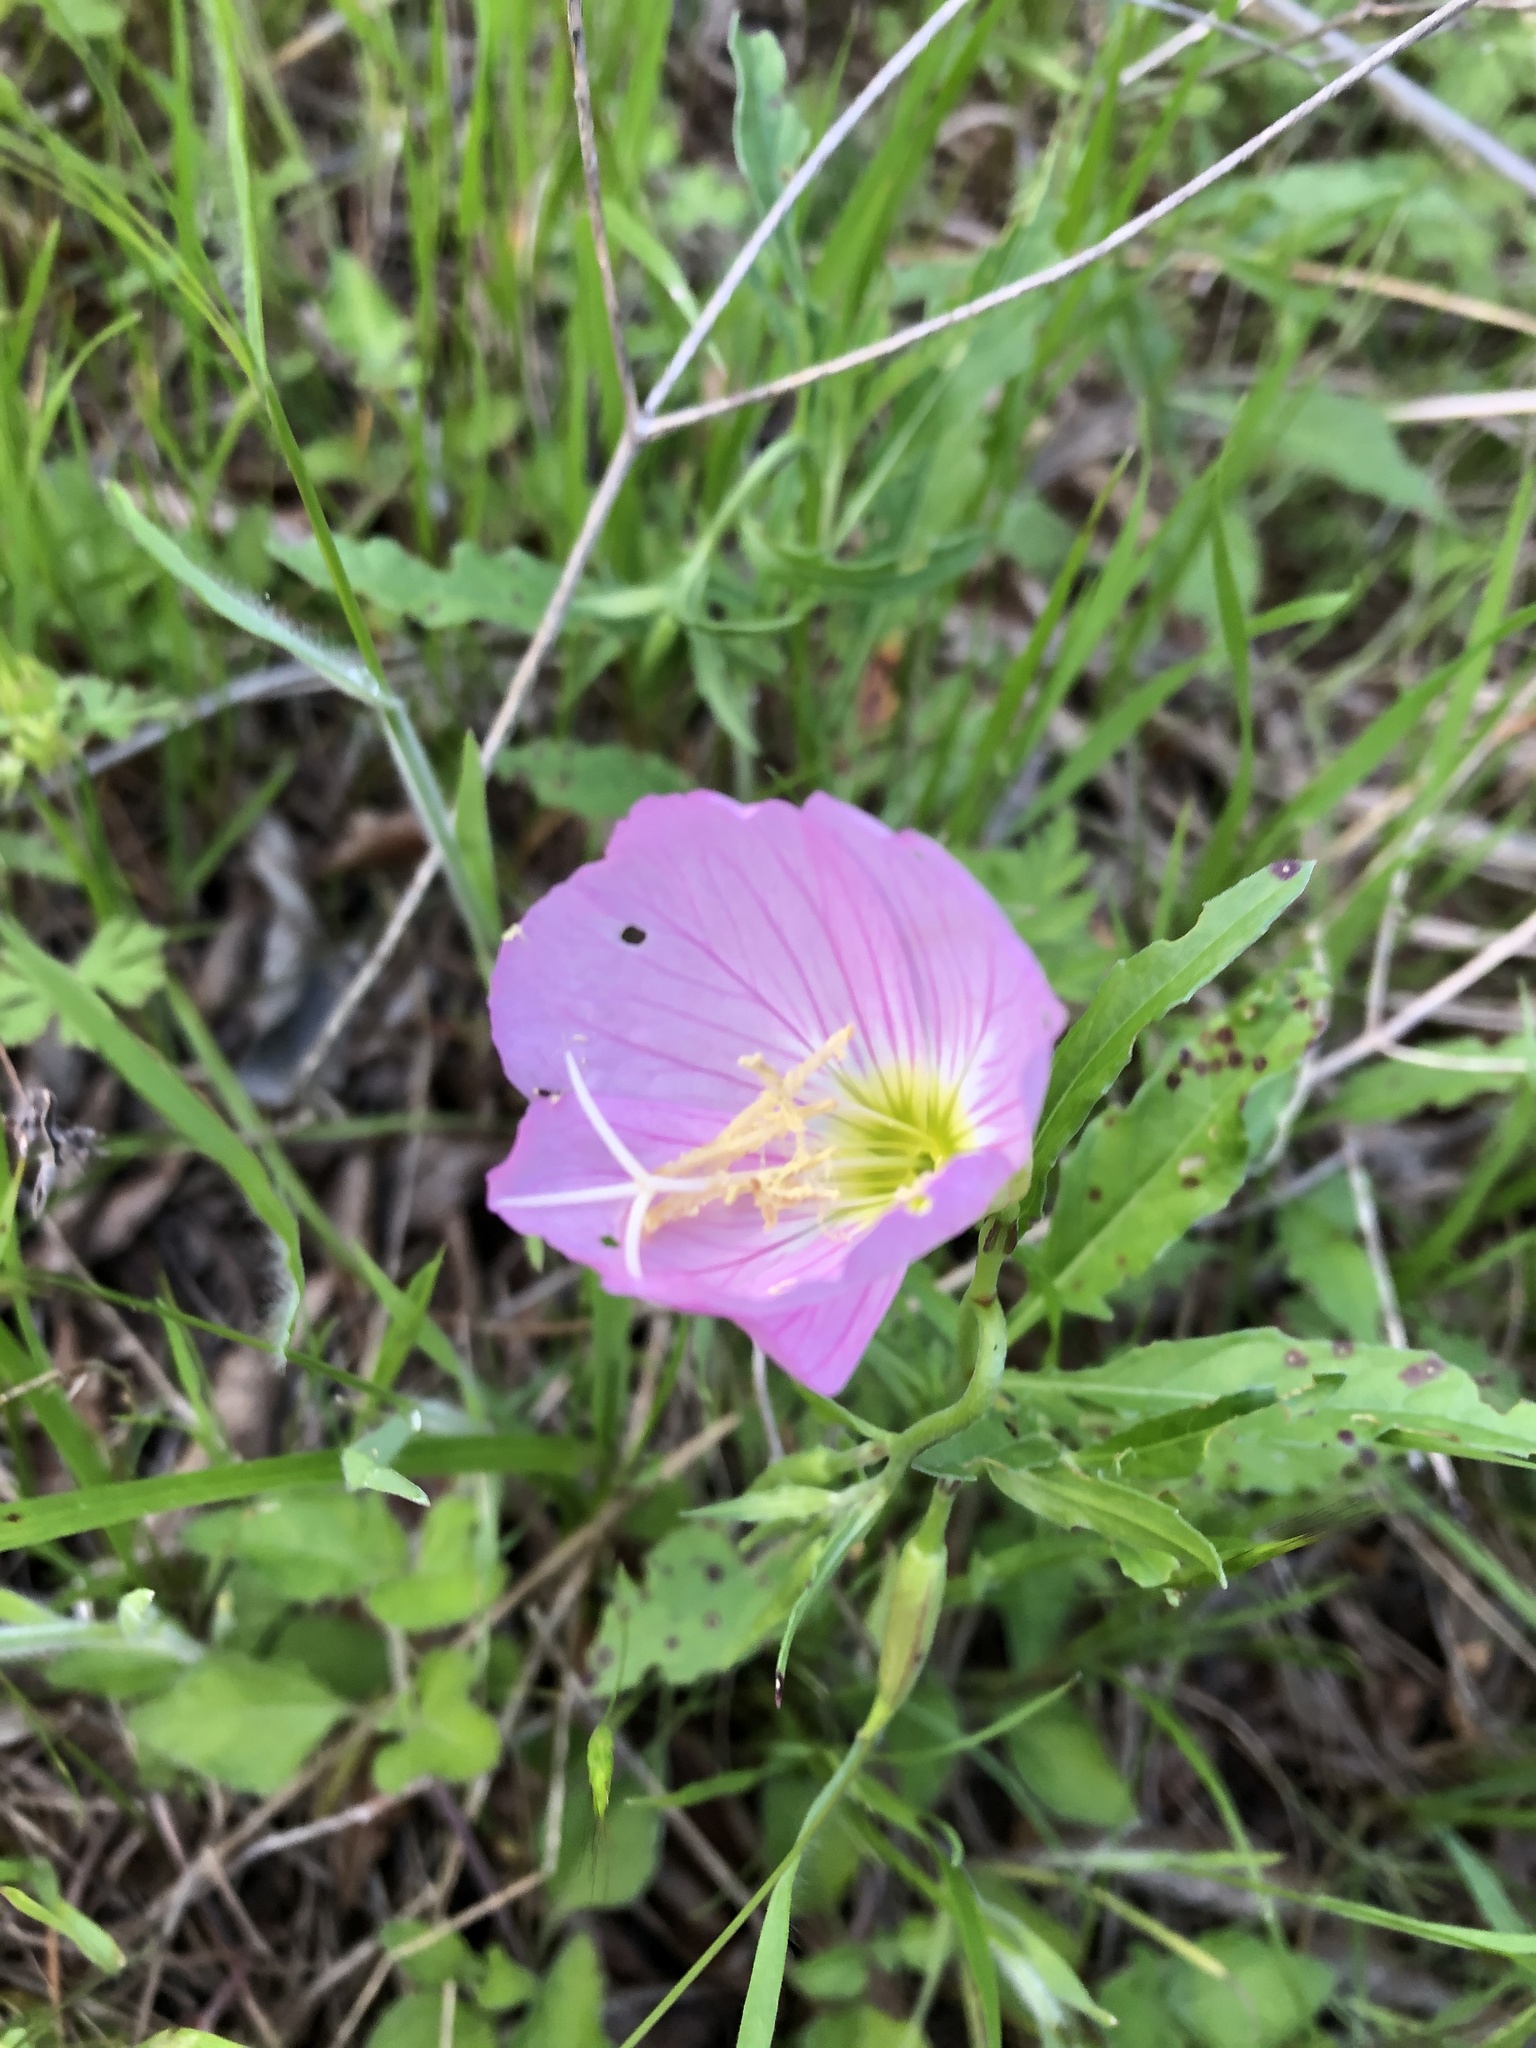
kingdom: Plantae
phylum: Tracheophyta
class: Magnoliopsida
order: Myrtales
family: Onagraceae
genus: Oenothera
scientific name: Oenothera speciosa
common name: White evening-primrose
